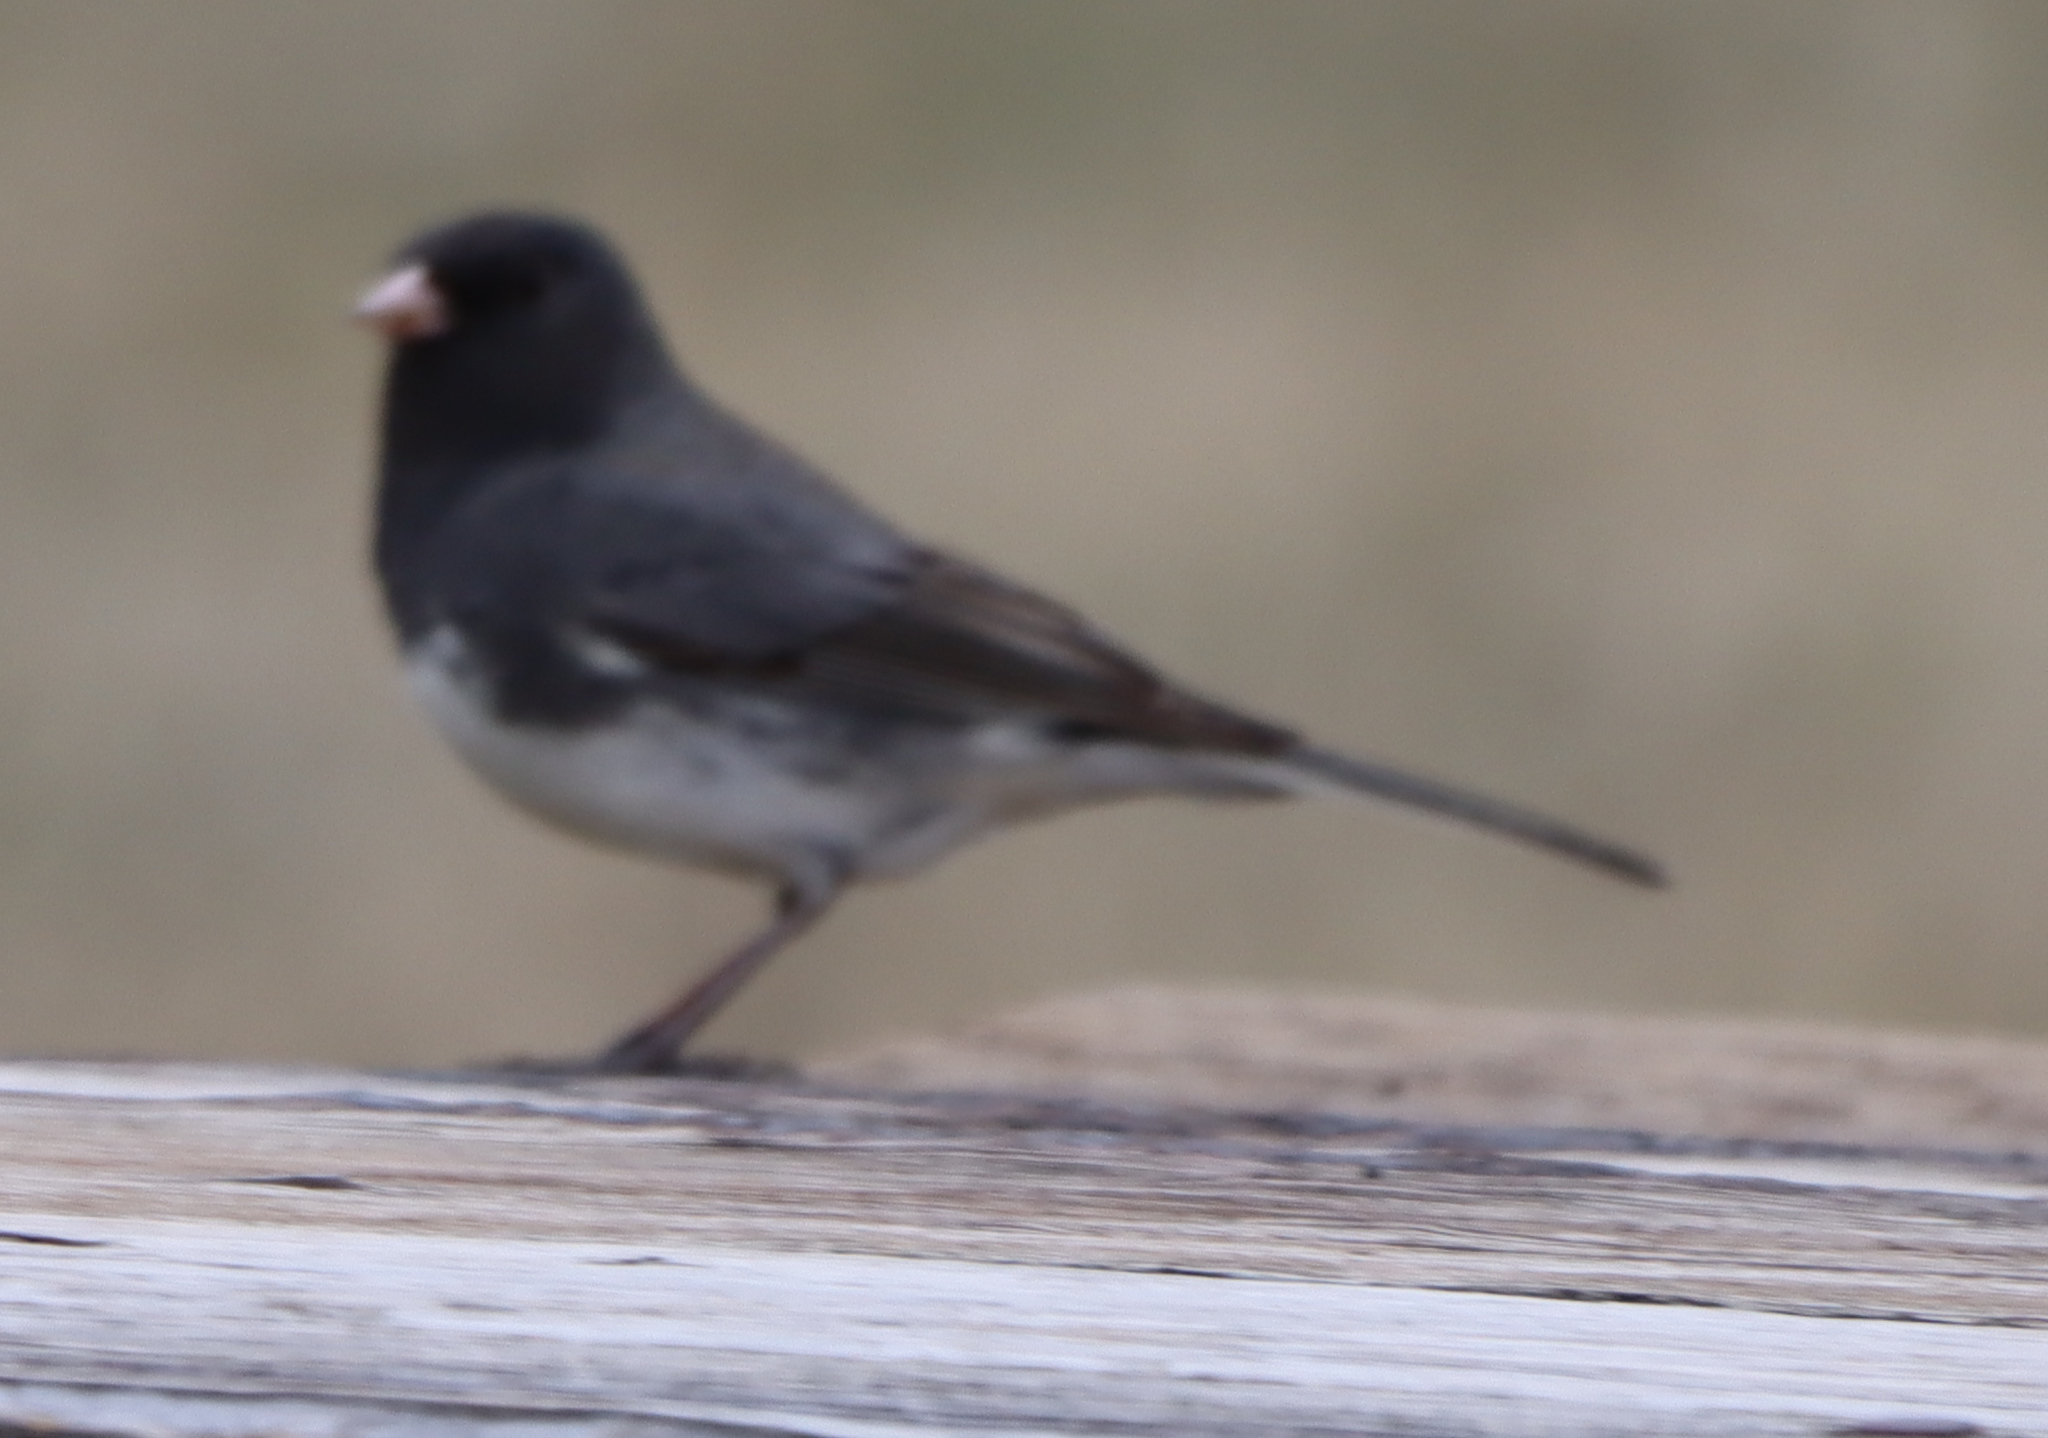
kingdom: Animalia
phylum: Chordata
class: Aves
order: Passeriformes
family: Passerellidae
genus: Junco
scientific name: Junco hyemalis
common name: Dark-eyed junco
